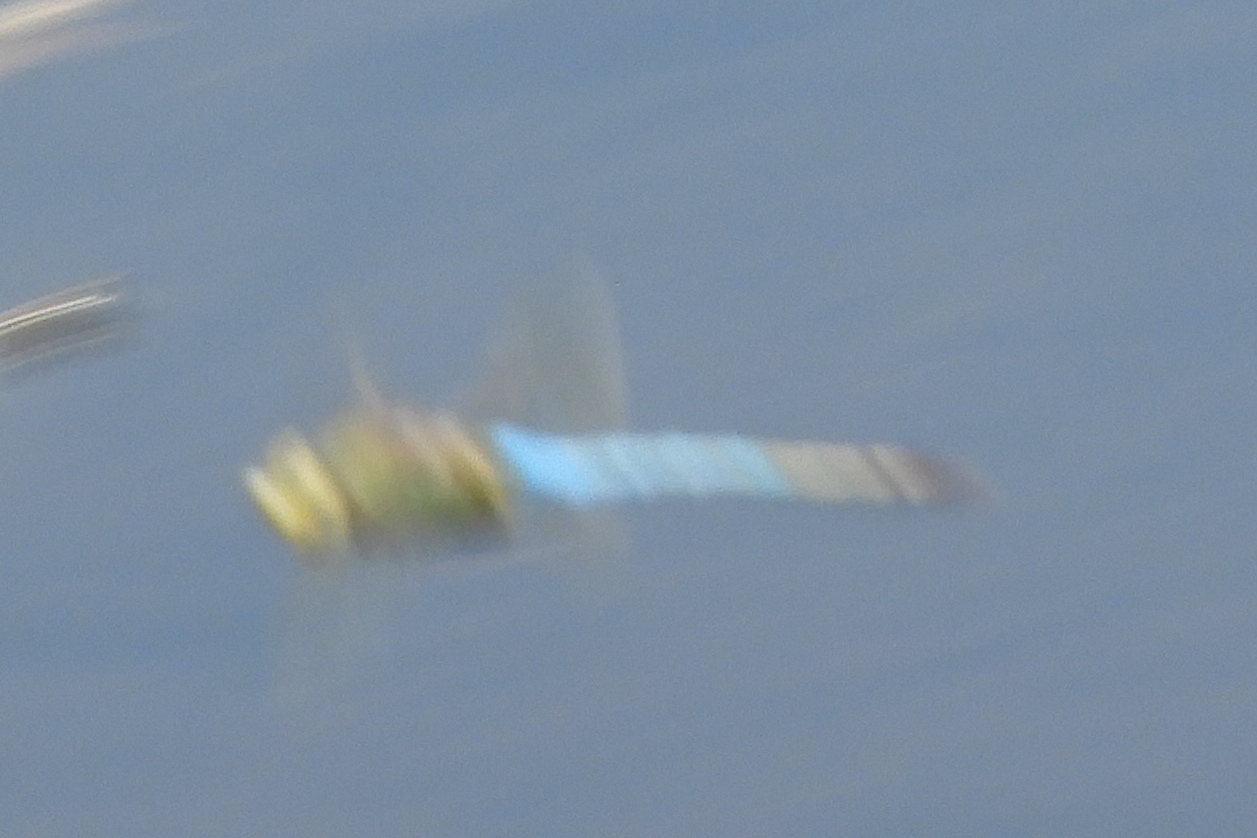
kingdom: Animalia
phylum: Arthropoda
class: Insecta
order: Odonata
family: Aeshnidae
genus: Anax
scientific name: Anax junius
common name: Common green darner
